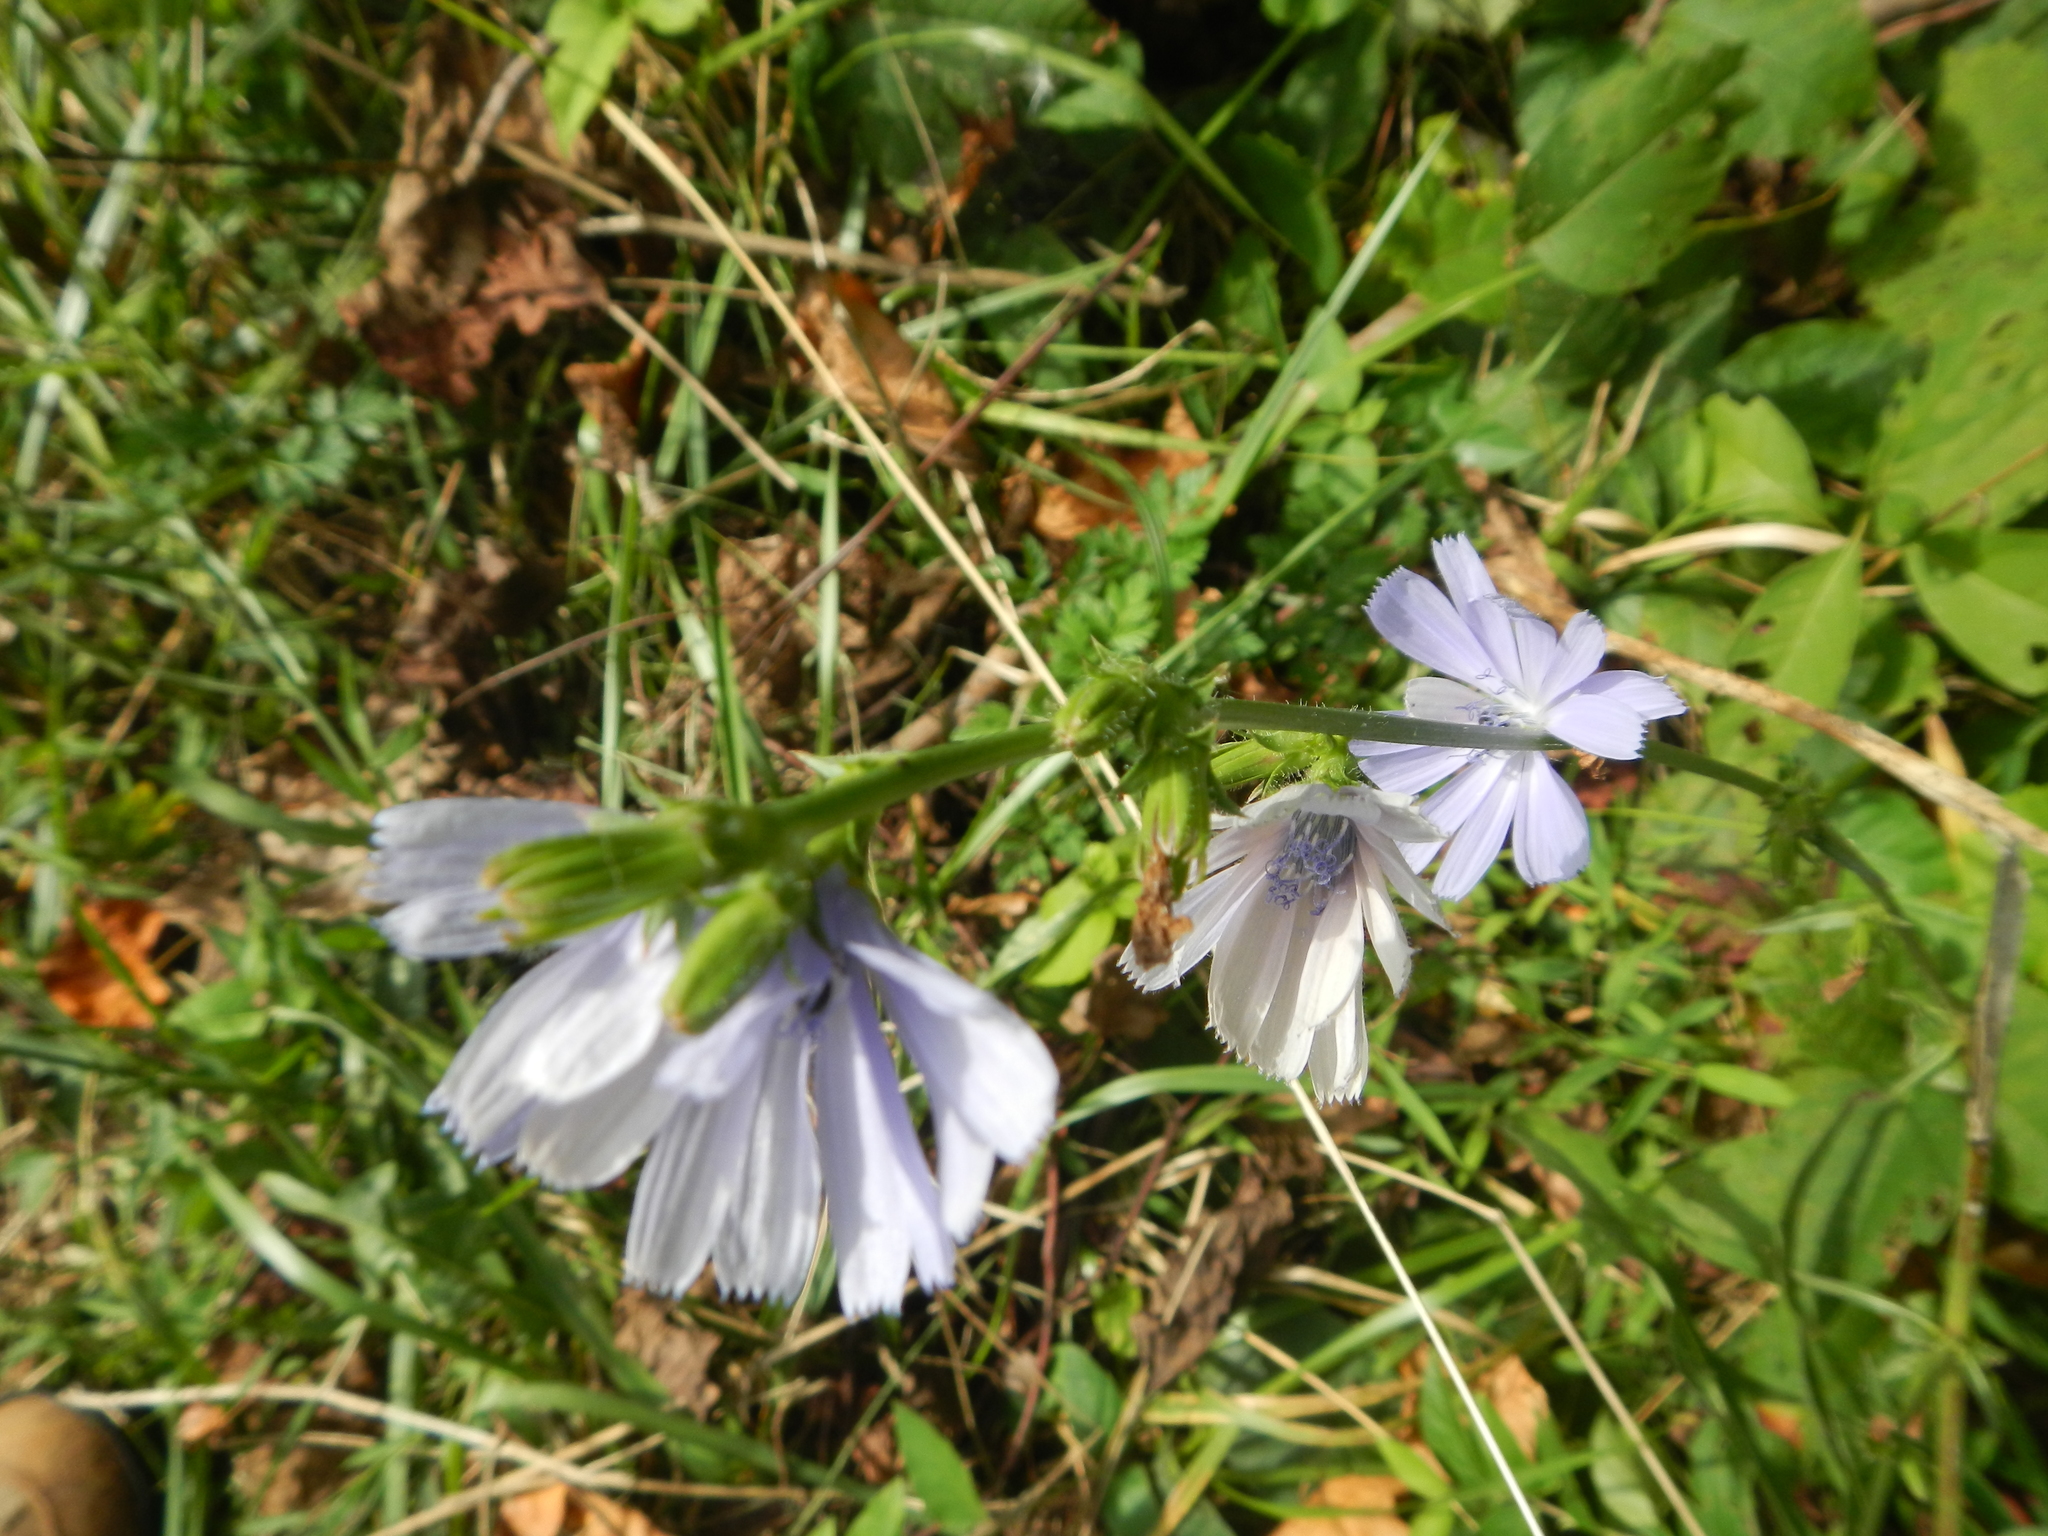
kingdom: Plantae
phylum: Tracheophyta
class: Magnoliopsida
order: Asterales
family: Asteraceae
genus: Cichorium
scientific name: Cichorium intybus
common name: Chicory
